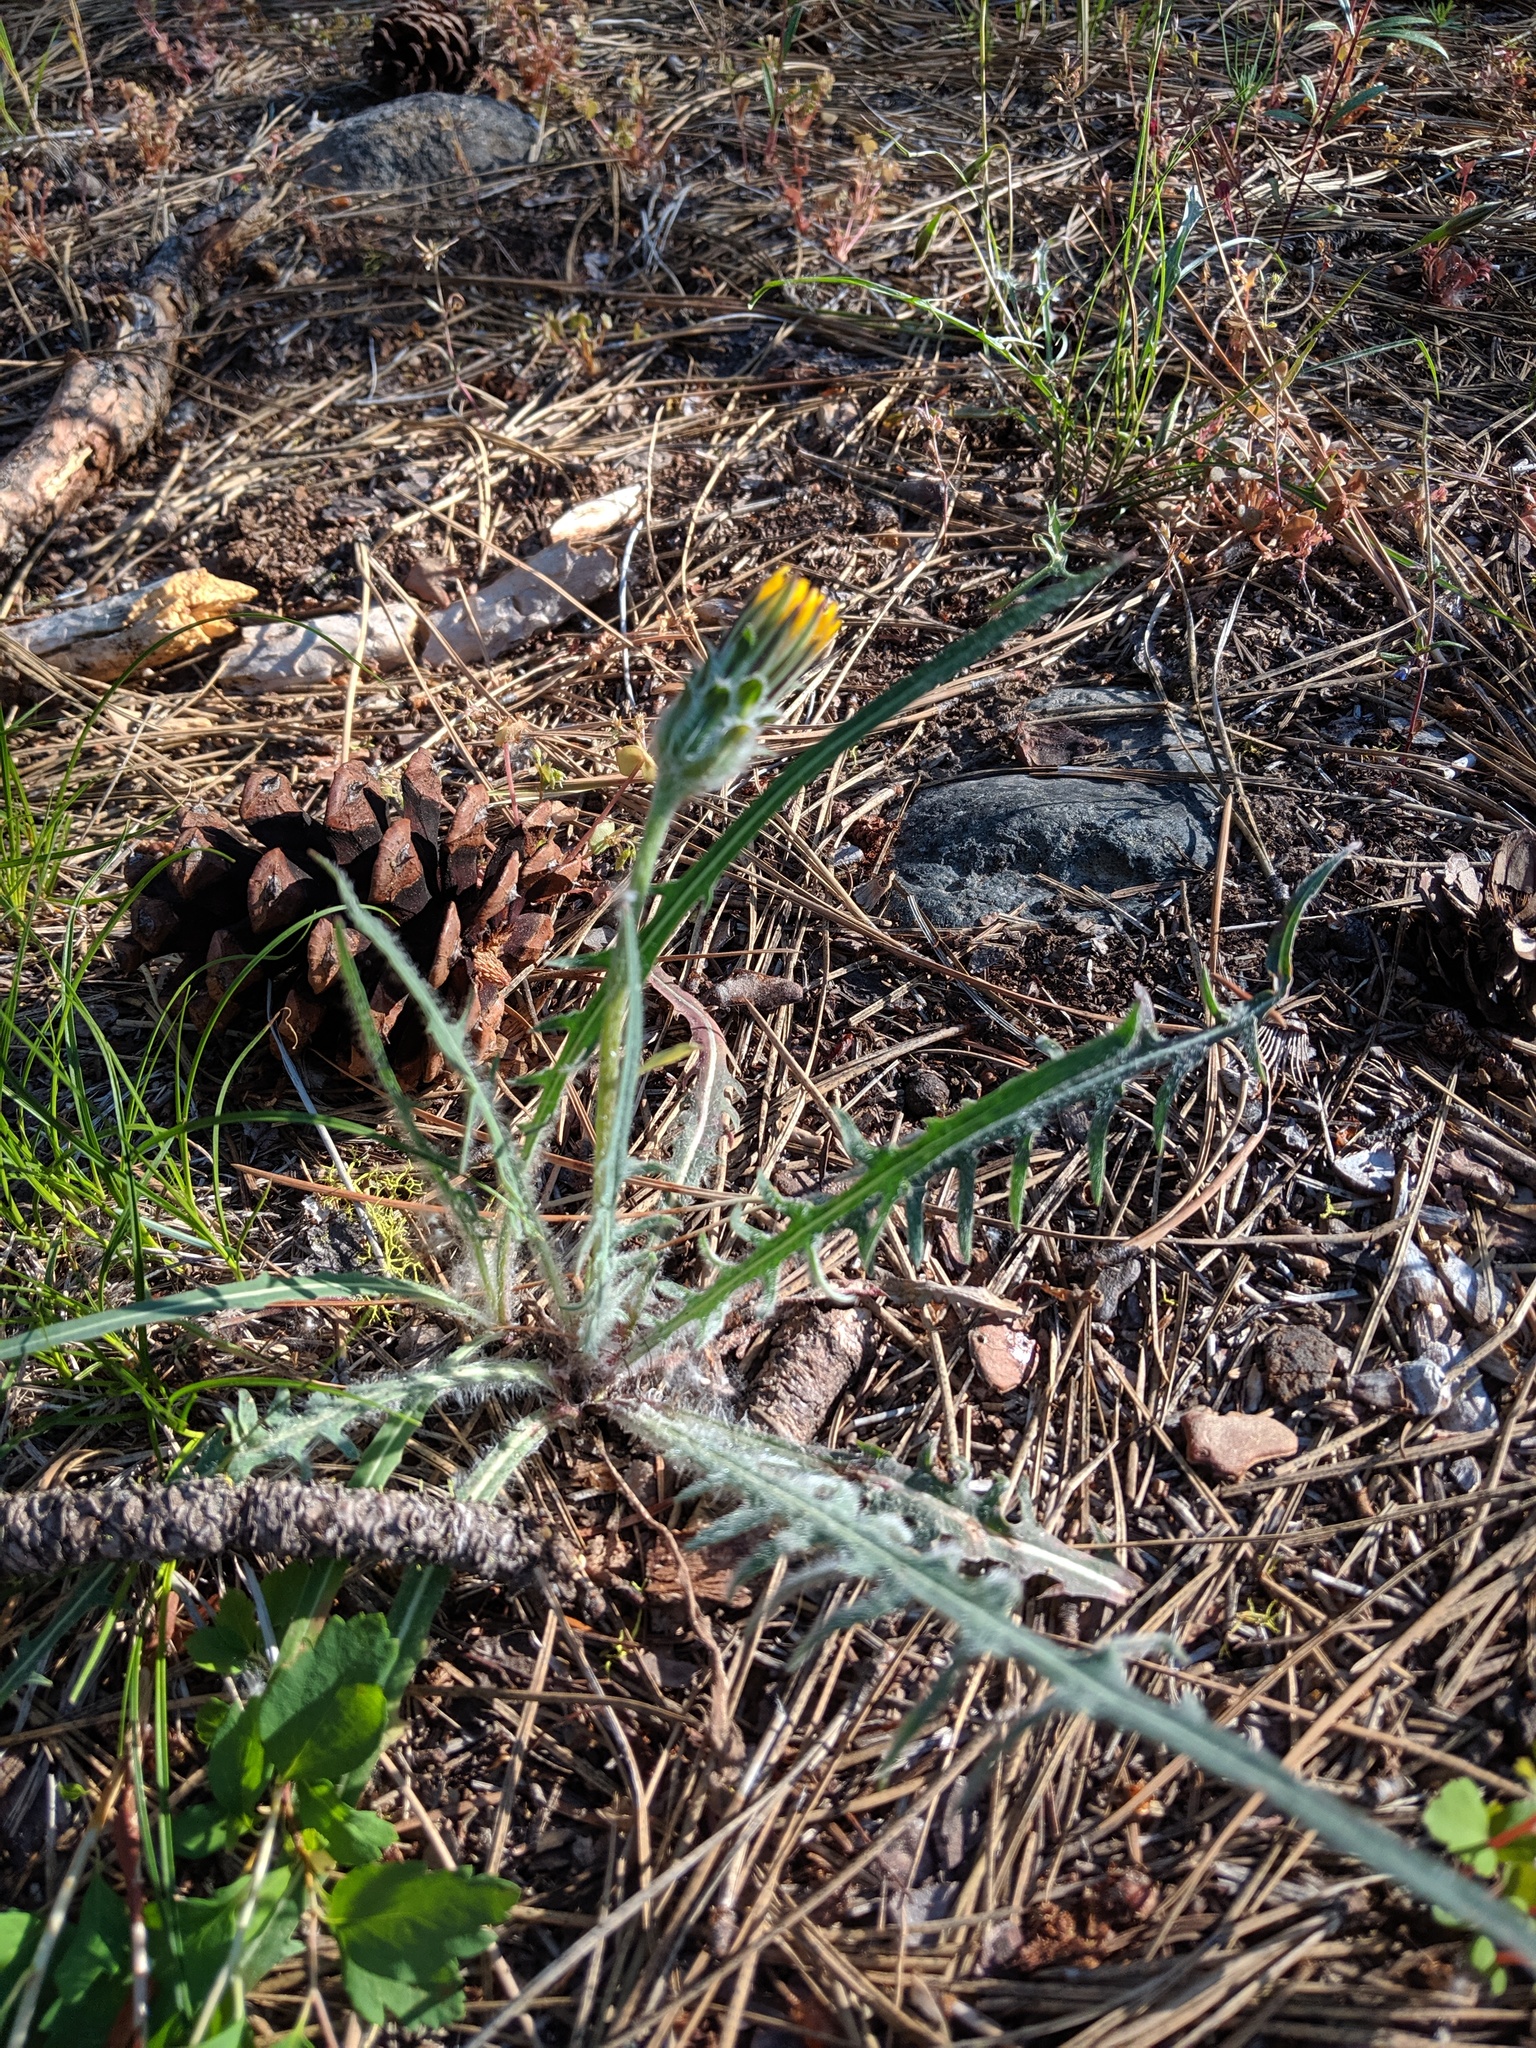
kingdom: Plantae
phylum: Tracheophyta
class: Magnoliopsida
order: Asterales
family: Asteraceae
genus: Agoseris
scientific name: Agoseris grandiflora
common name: Grassland agoseris
